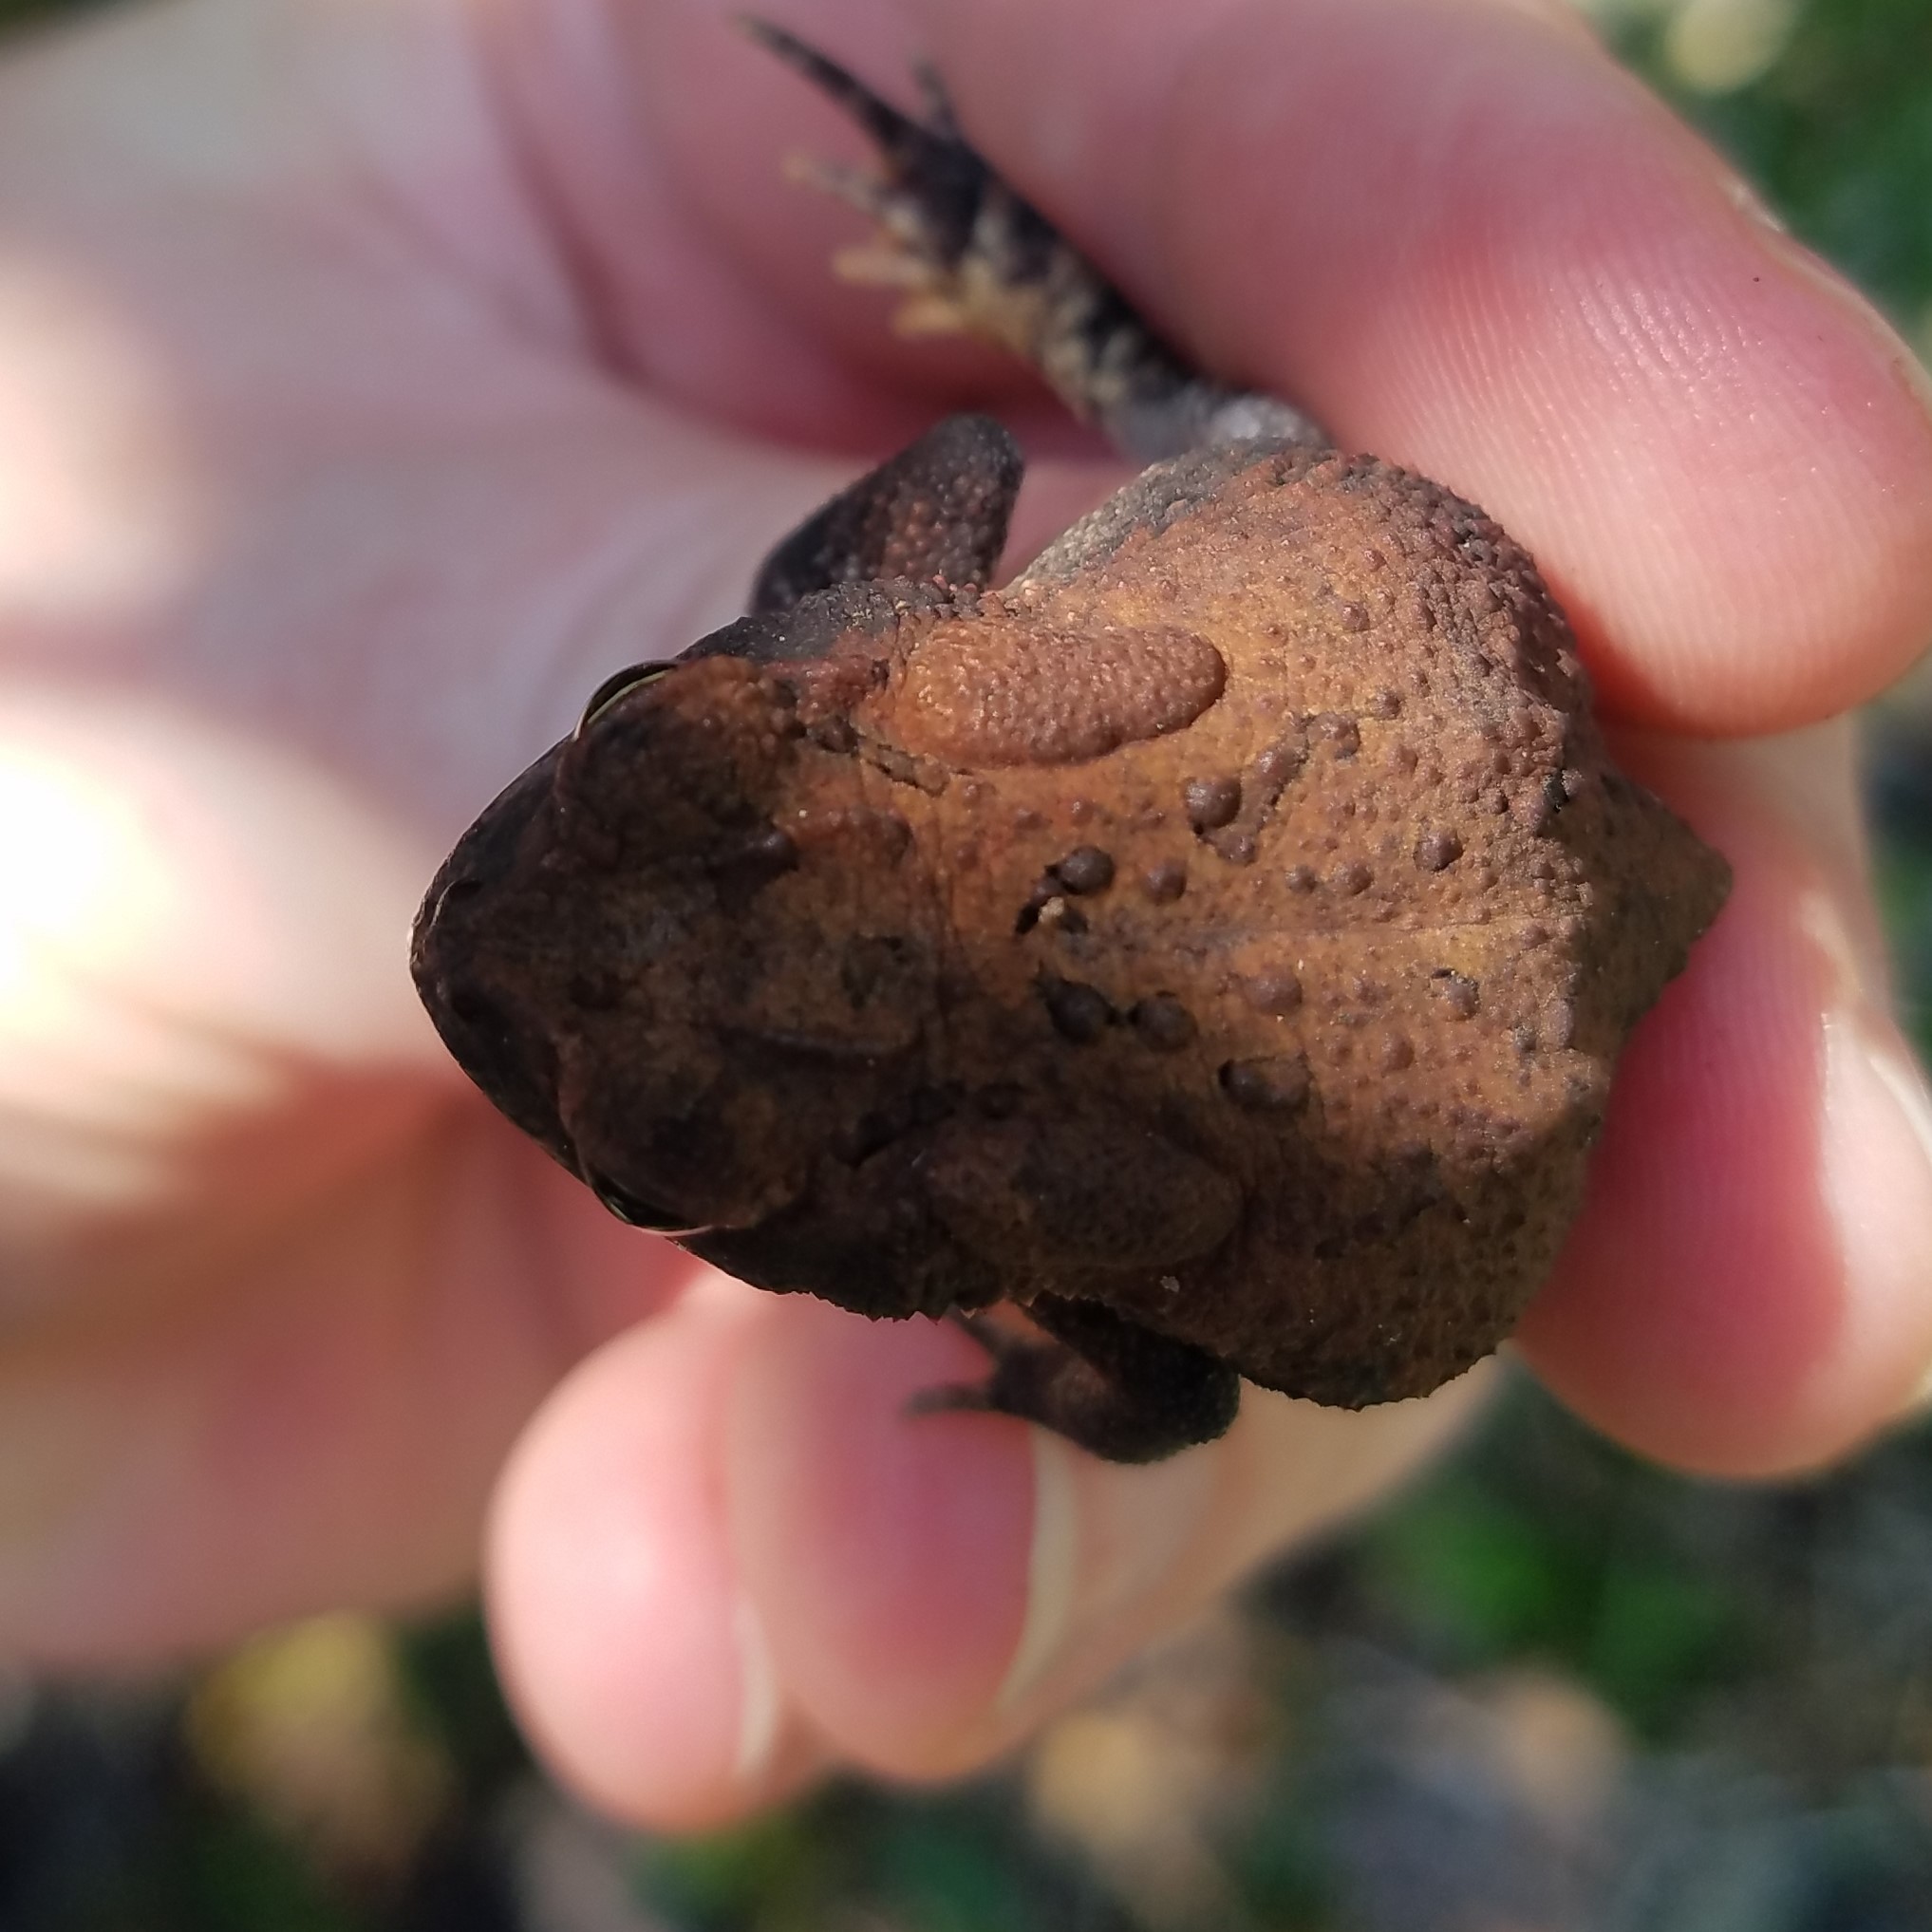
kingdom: Animalia
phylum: Chordata
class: Amphibia
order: Anura
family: Bufonidae
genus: Anaxyrus
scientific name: Anaxyrus terrestris
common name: Southern toad
